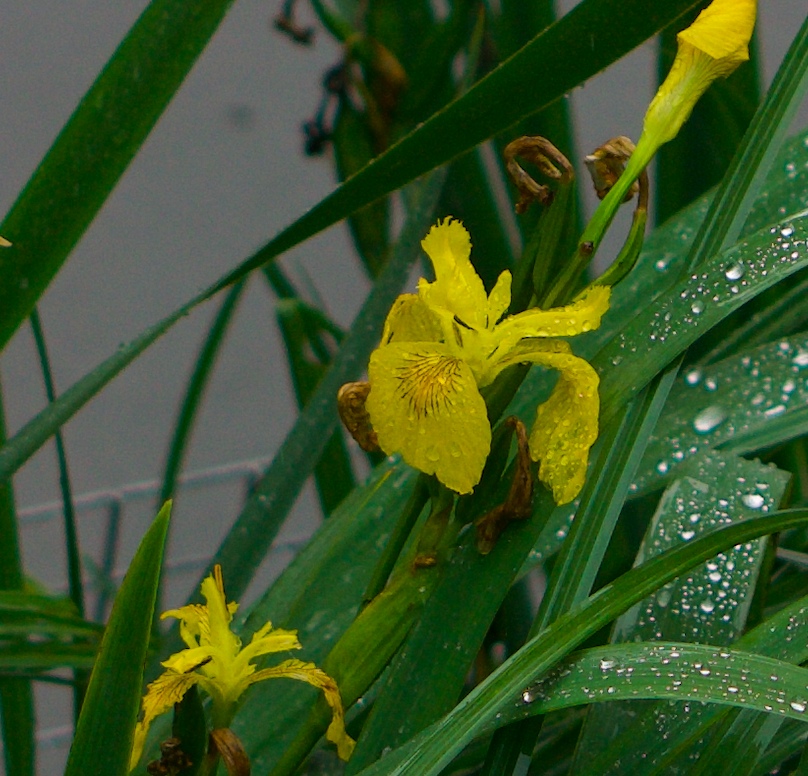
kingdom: Plantae
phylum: Tracheophyta
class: Liliopsida
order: Asparagales
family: Iridaceae
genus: Iris
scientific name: Iris pseudacorus
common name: Yellow flag
